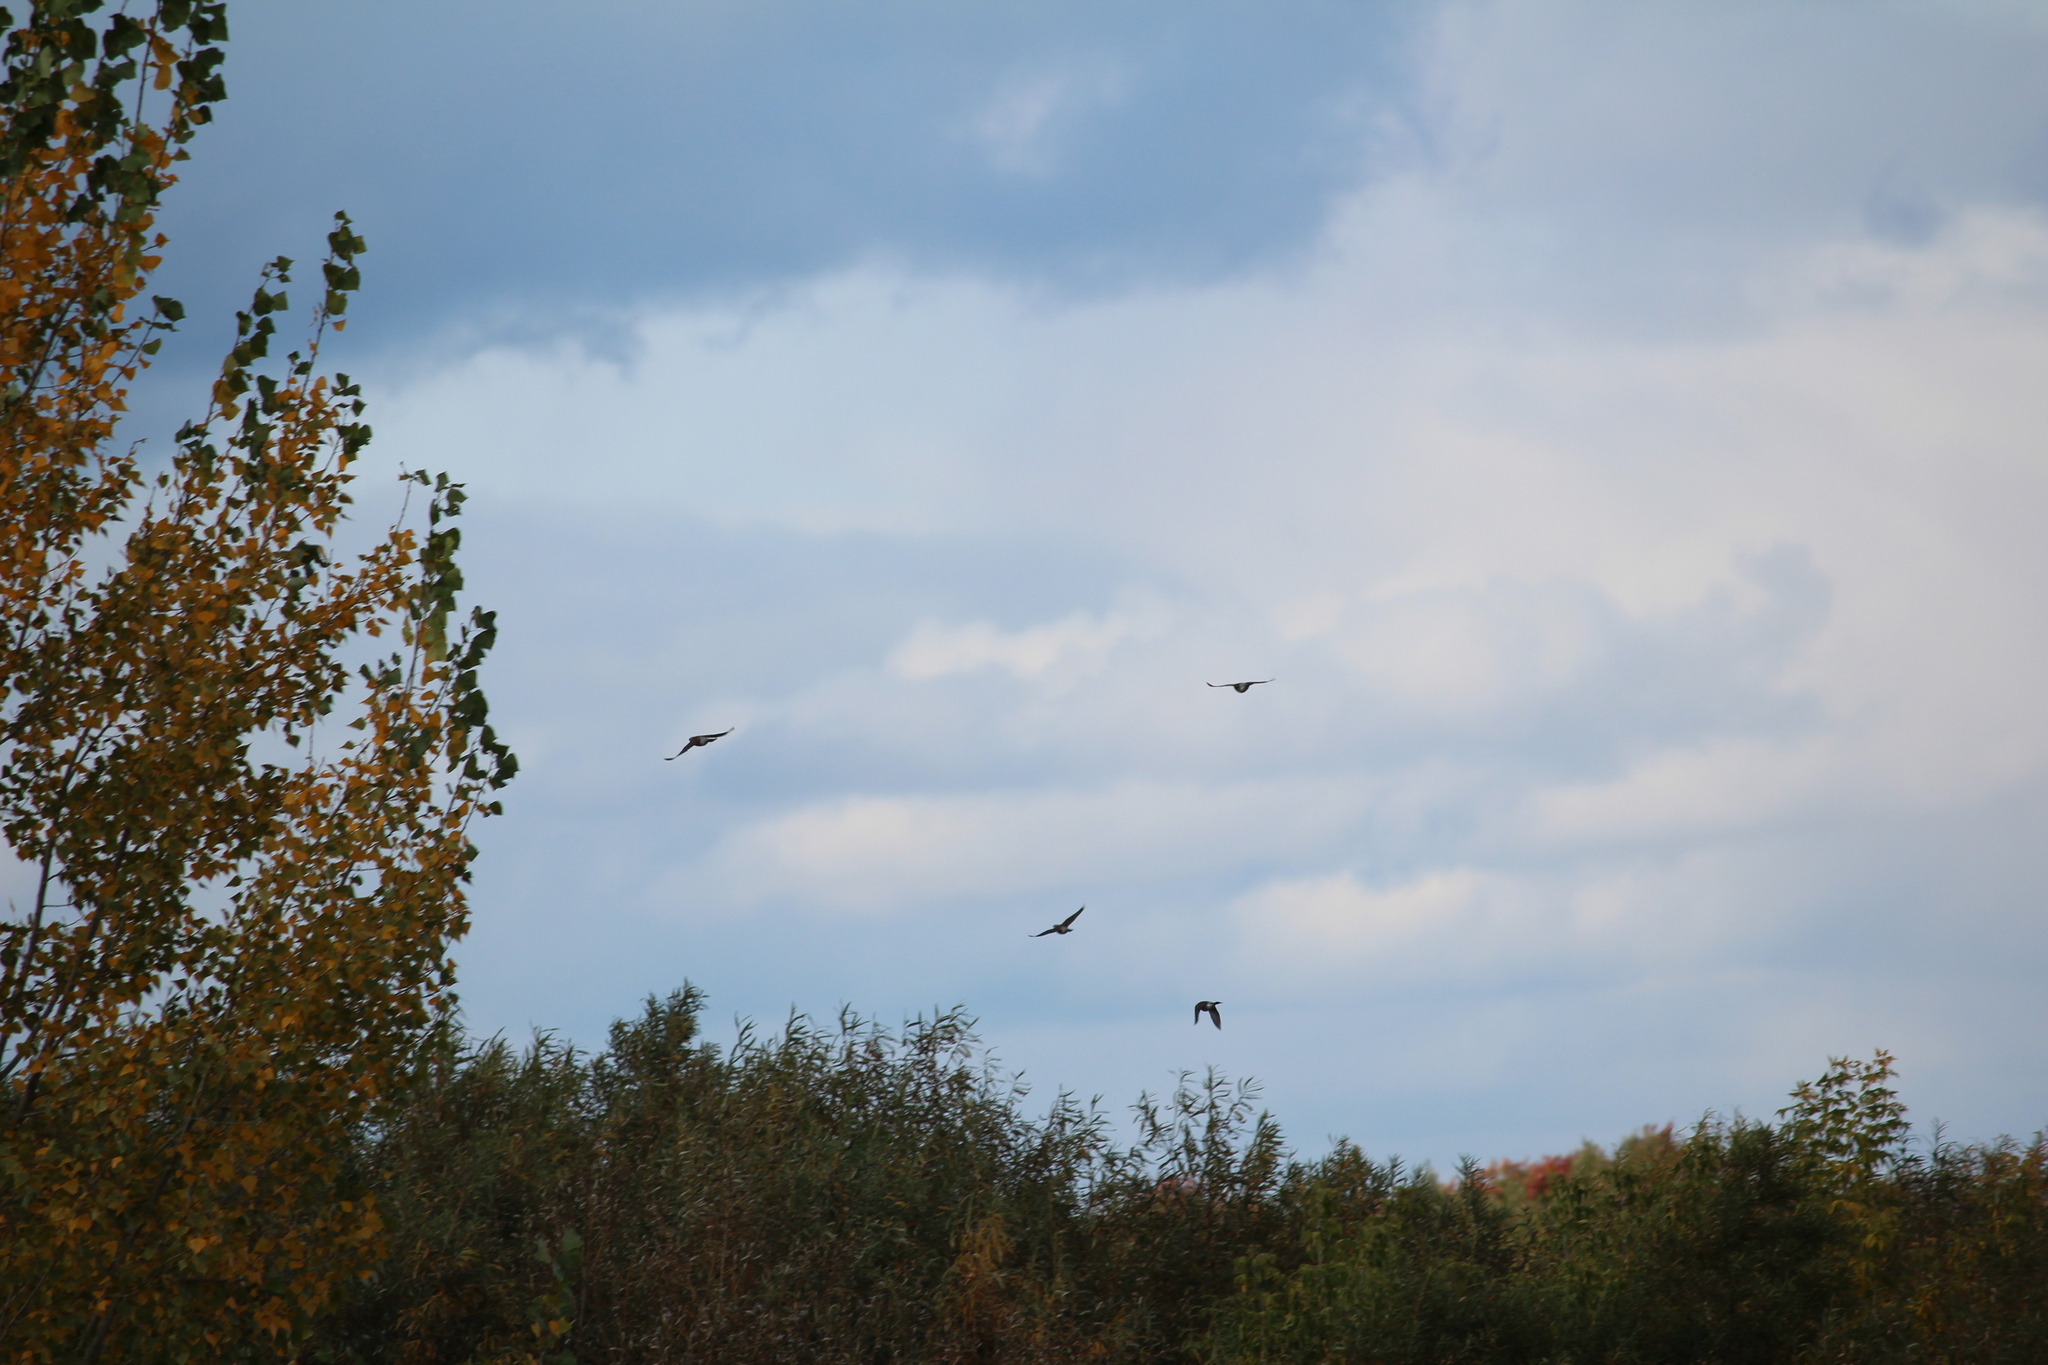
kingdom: Animalia
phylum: Chordata
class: Aves
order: Passeriformes
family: Turdidae
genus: Turdus
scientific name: Turdus pilaris
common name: Fieldfare
